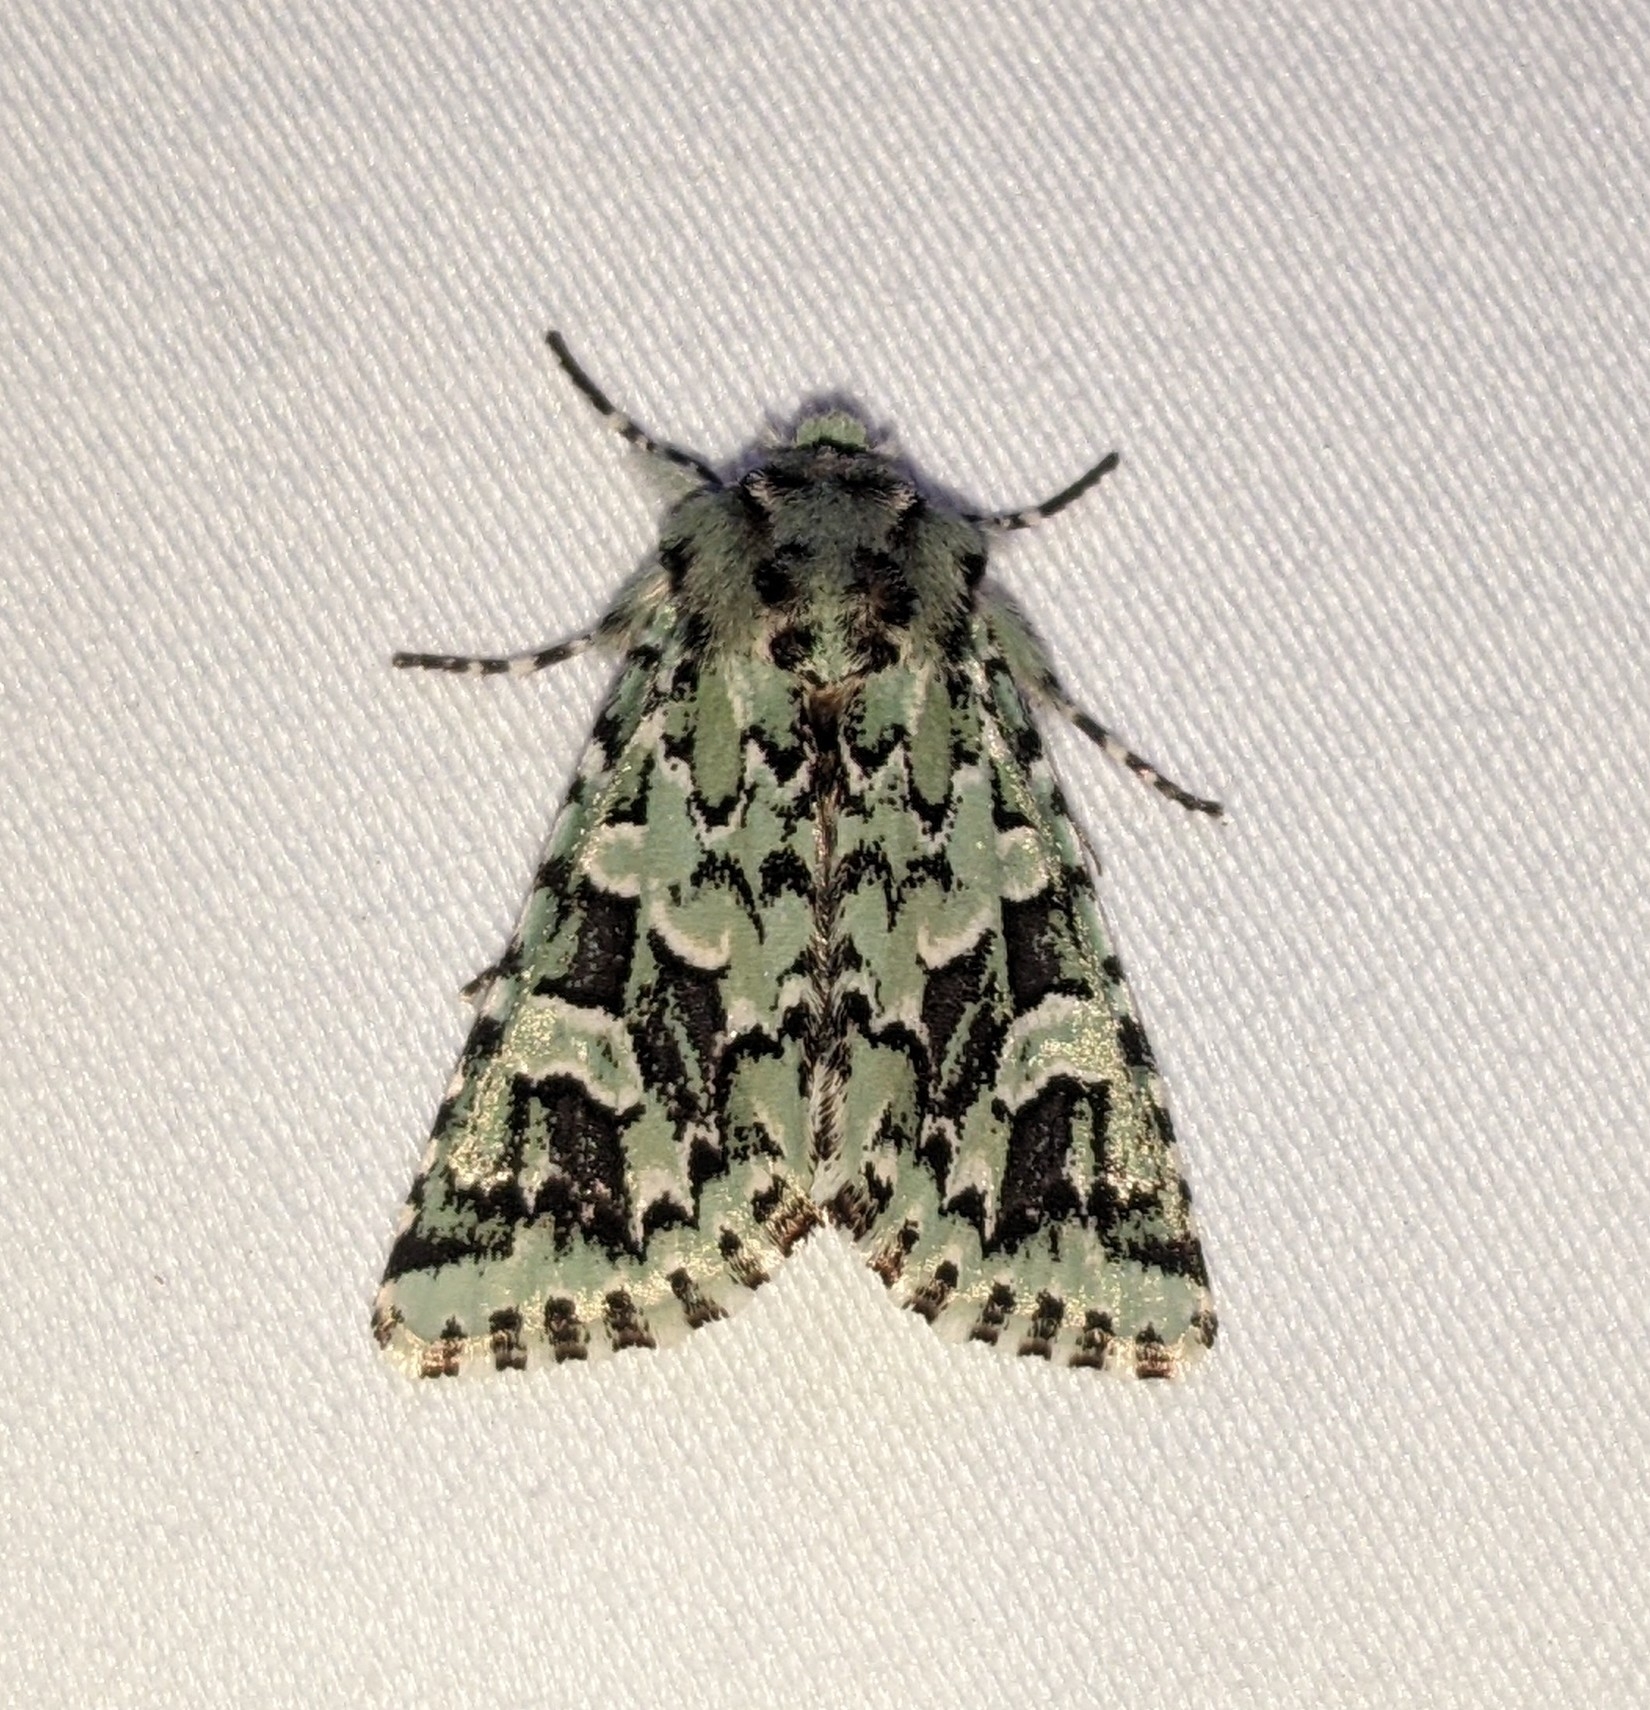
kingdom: Animalia
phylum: Arthropoda
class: Insecta
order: Lepidoptera
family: Noctuidae
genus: Feralia
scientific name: Feralia comstocki
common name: Comstock's sallow
